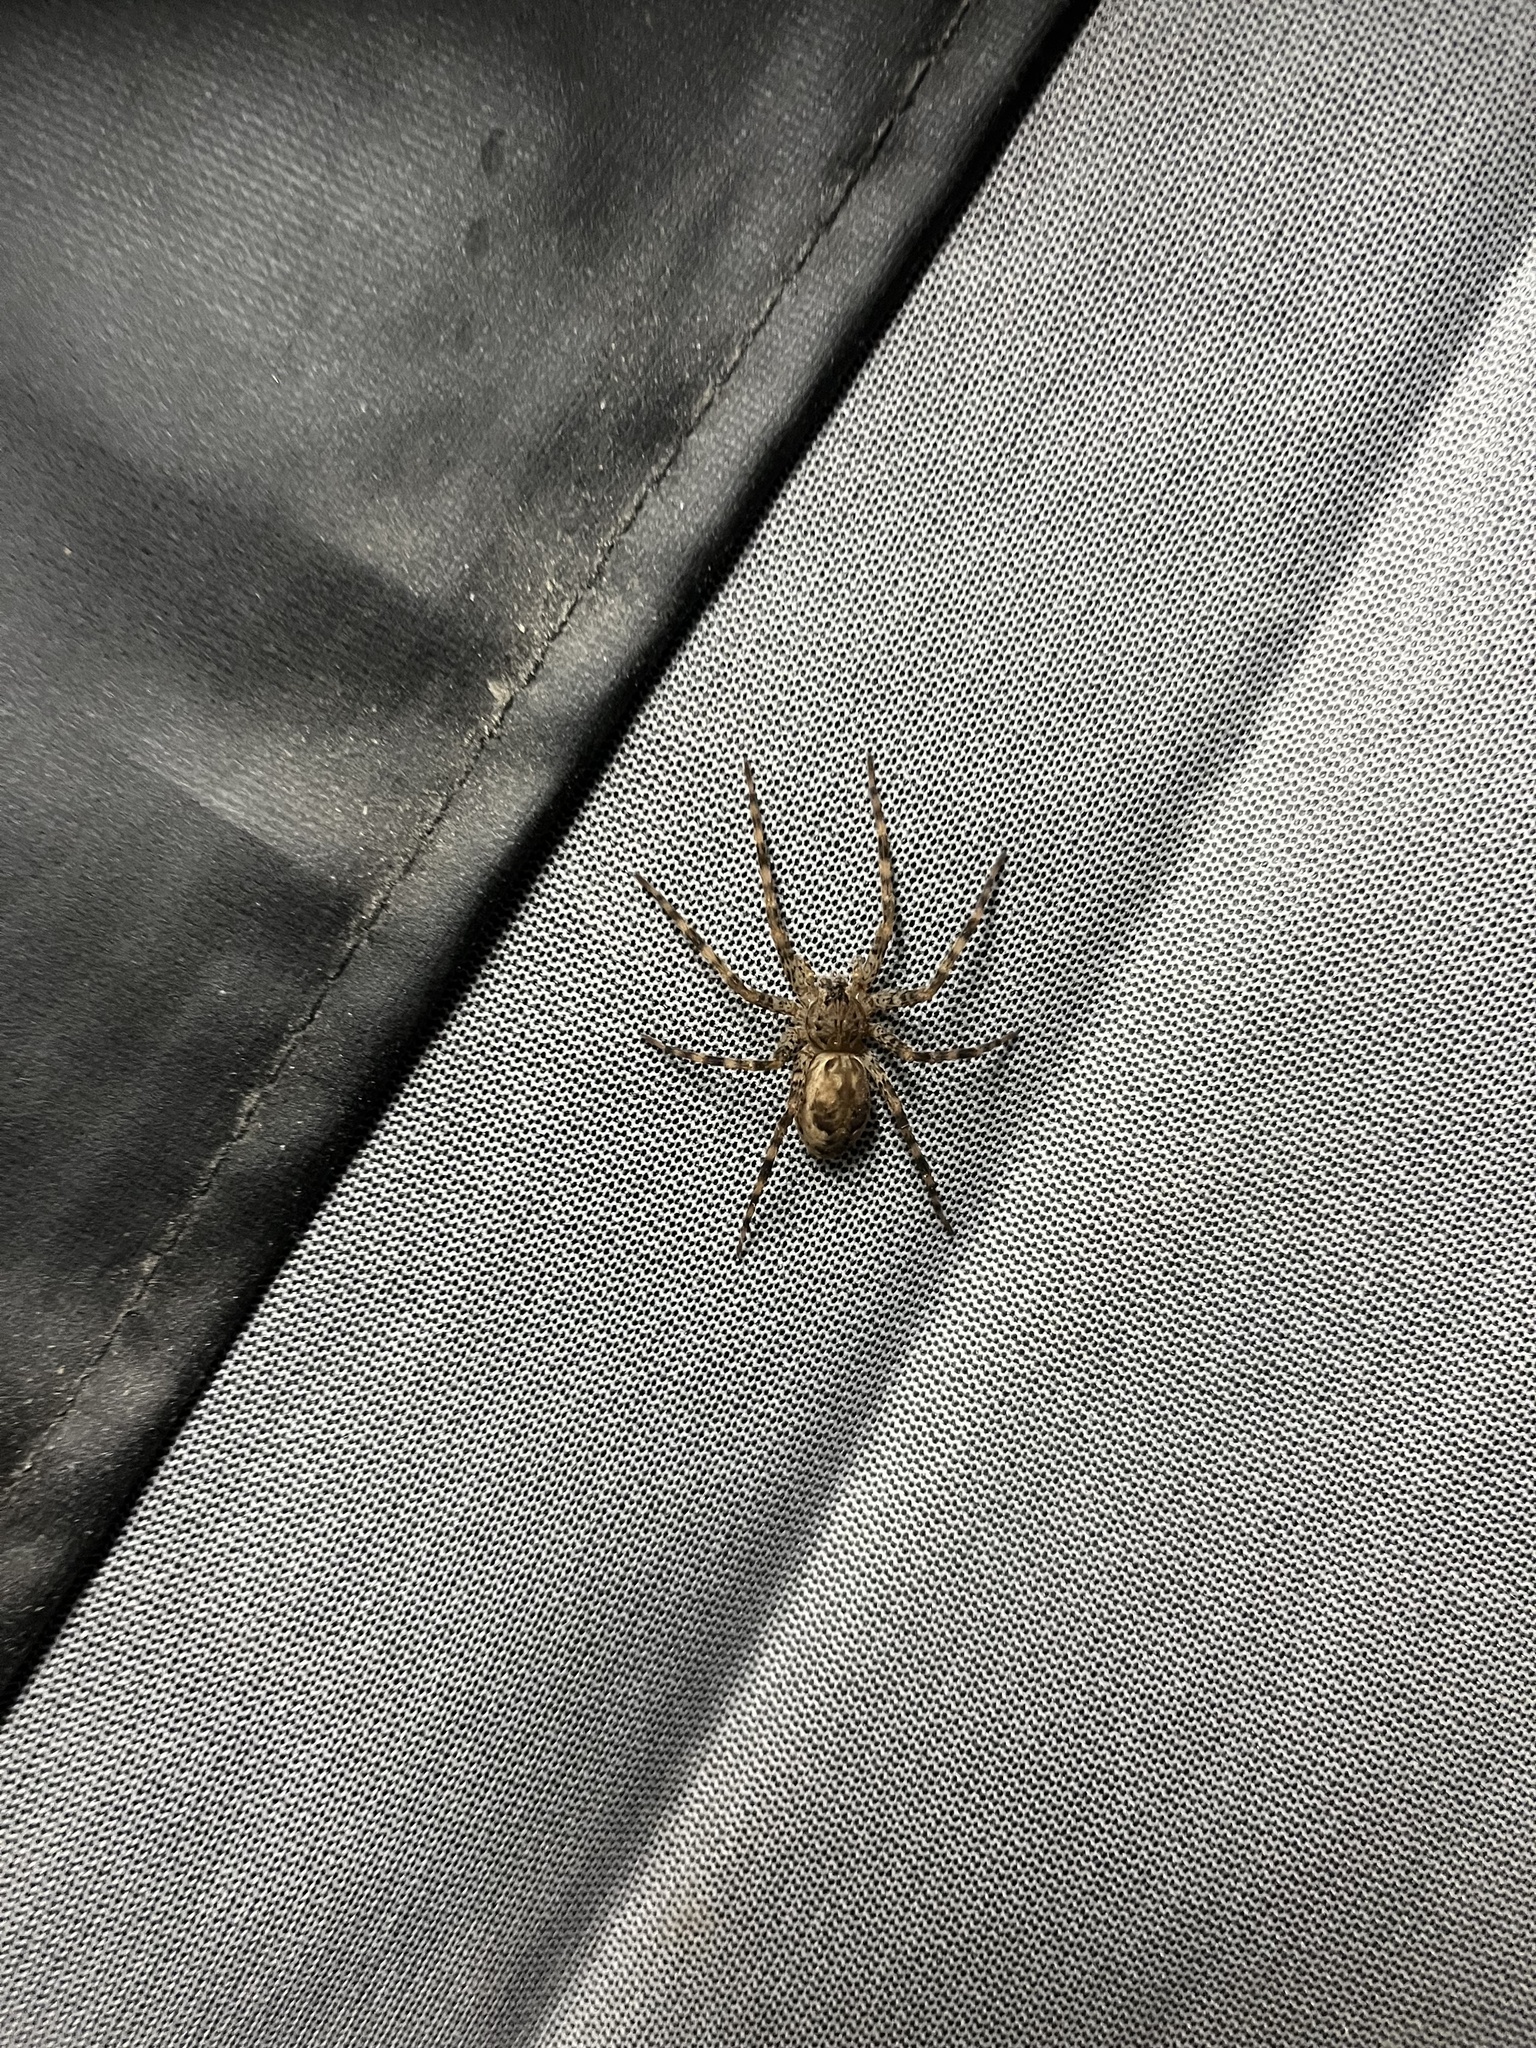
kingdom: Animalia
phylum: Arthropoda
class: Arachnida
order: Araneae
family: Pisauridae
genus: Dolomedes
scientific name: Dolomedes tenebrosus
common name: Dark fishing spider
